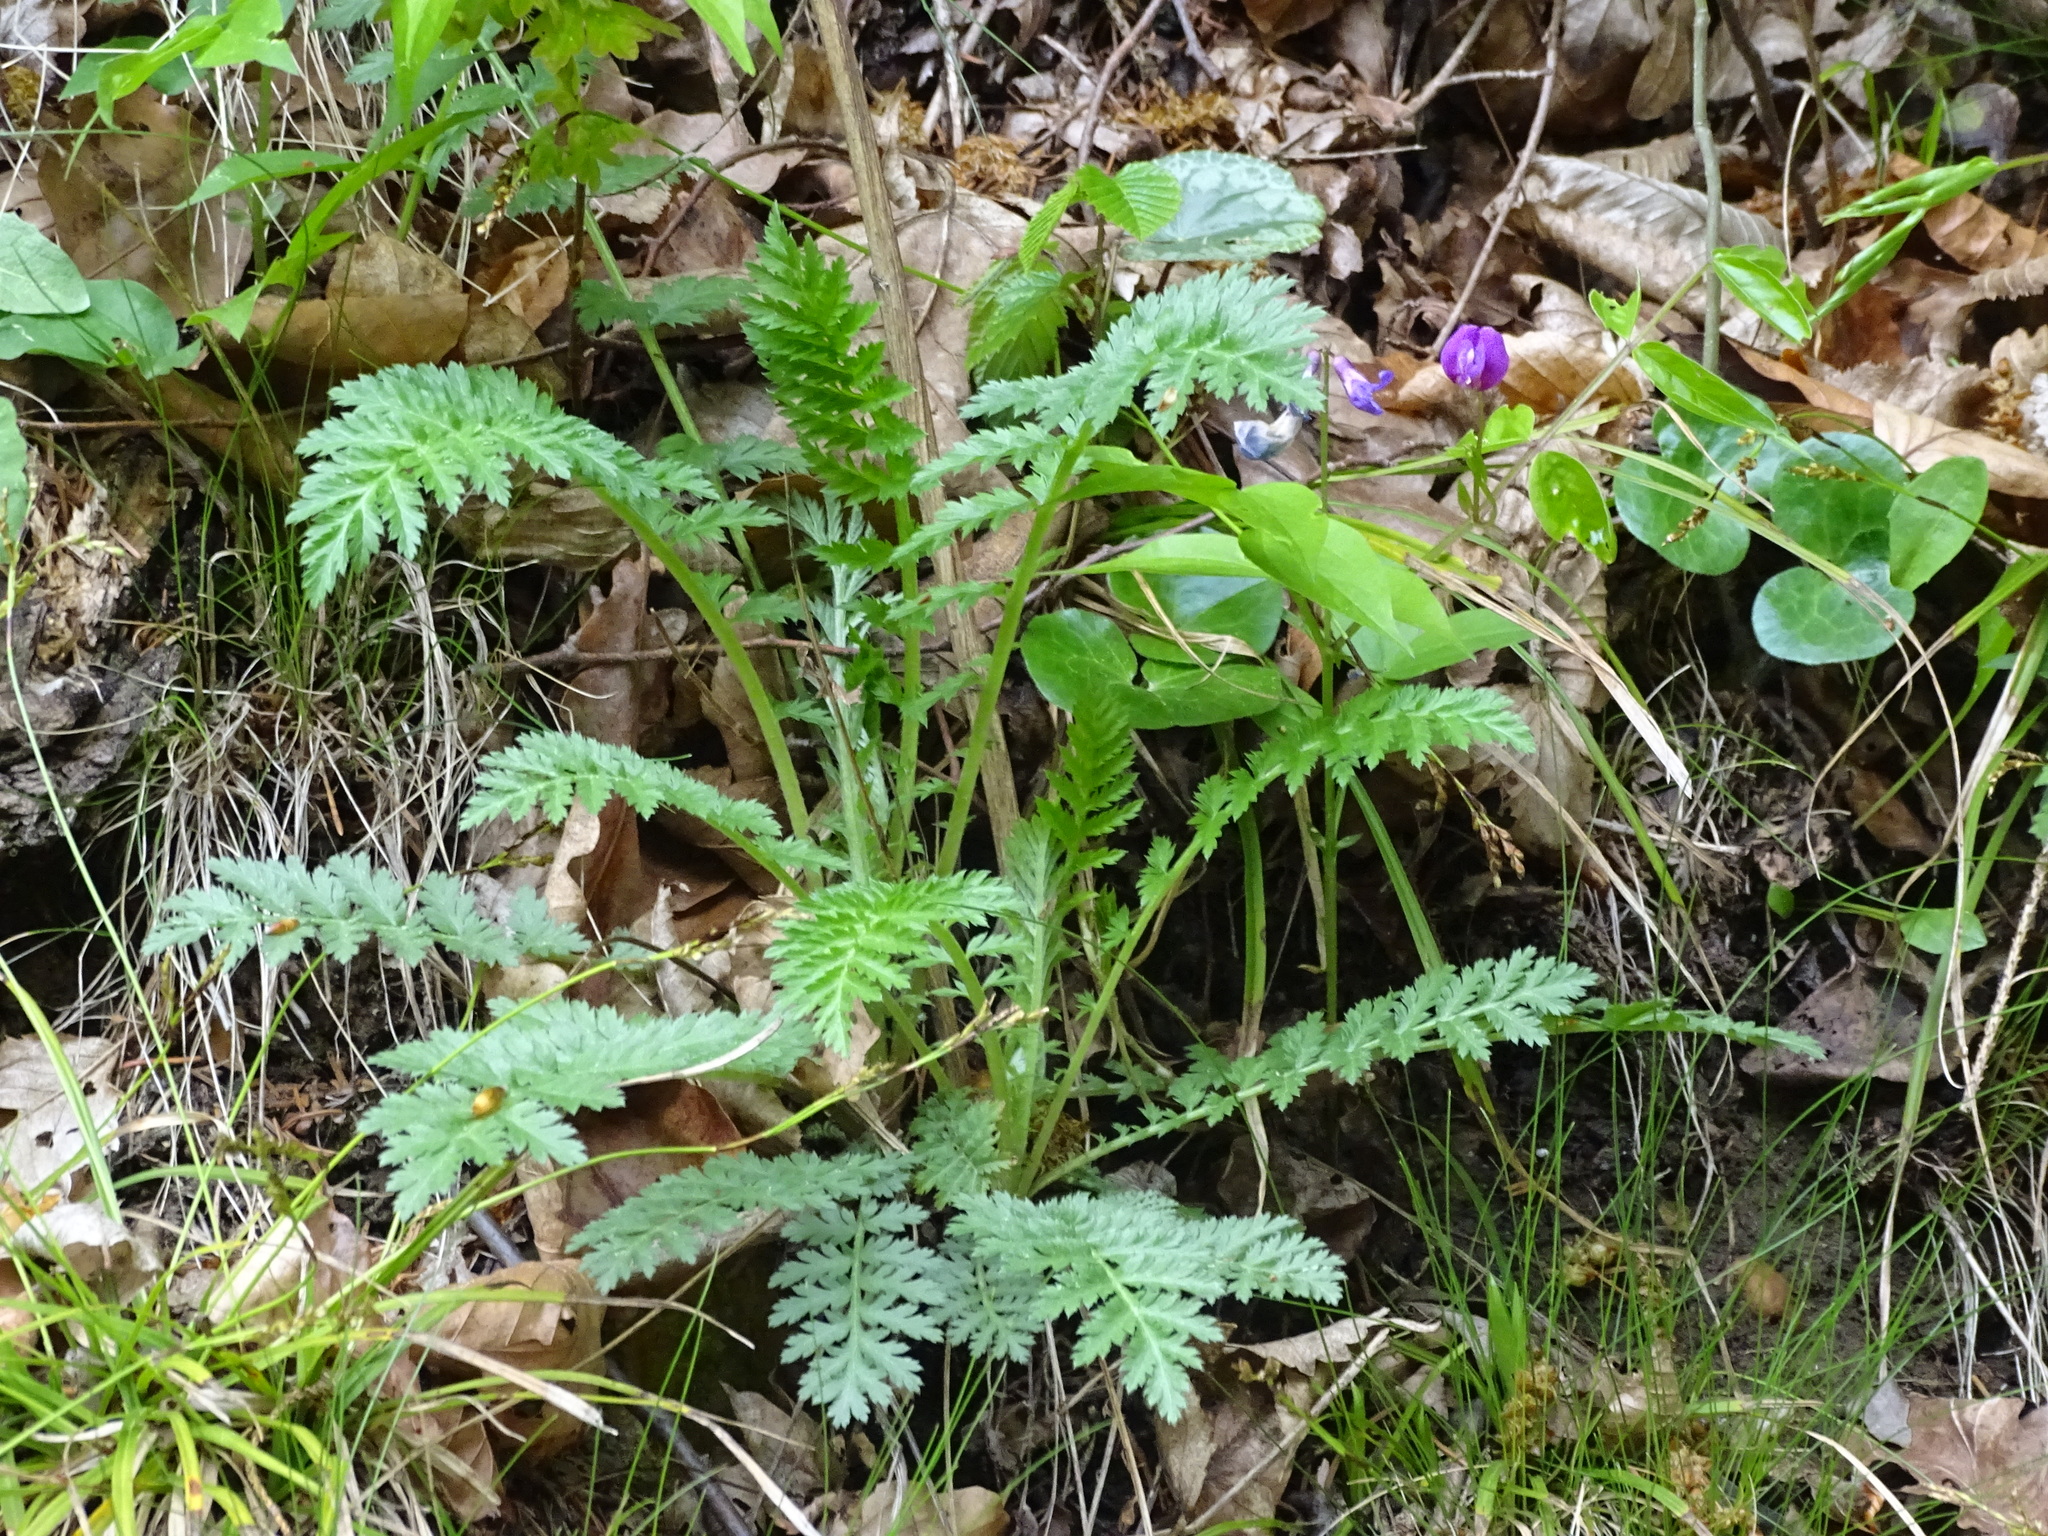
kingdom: Plantae
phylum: Tracheophyta
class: Magnoliopsida
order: Asterales
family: Asteraceae
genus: Tanacetum
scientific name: Tanacetum corymbosum
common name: Scentless feverfew
